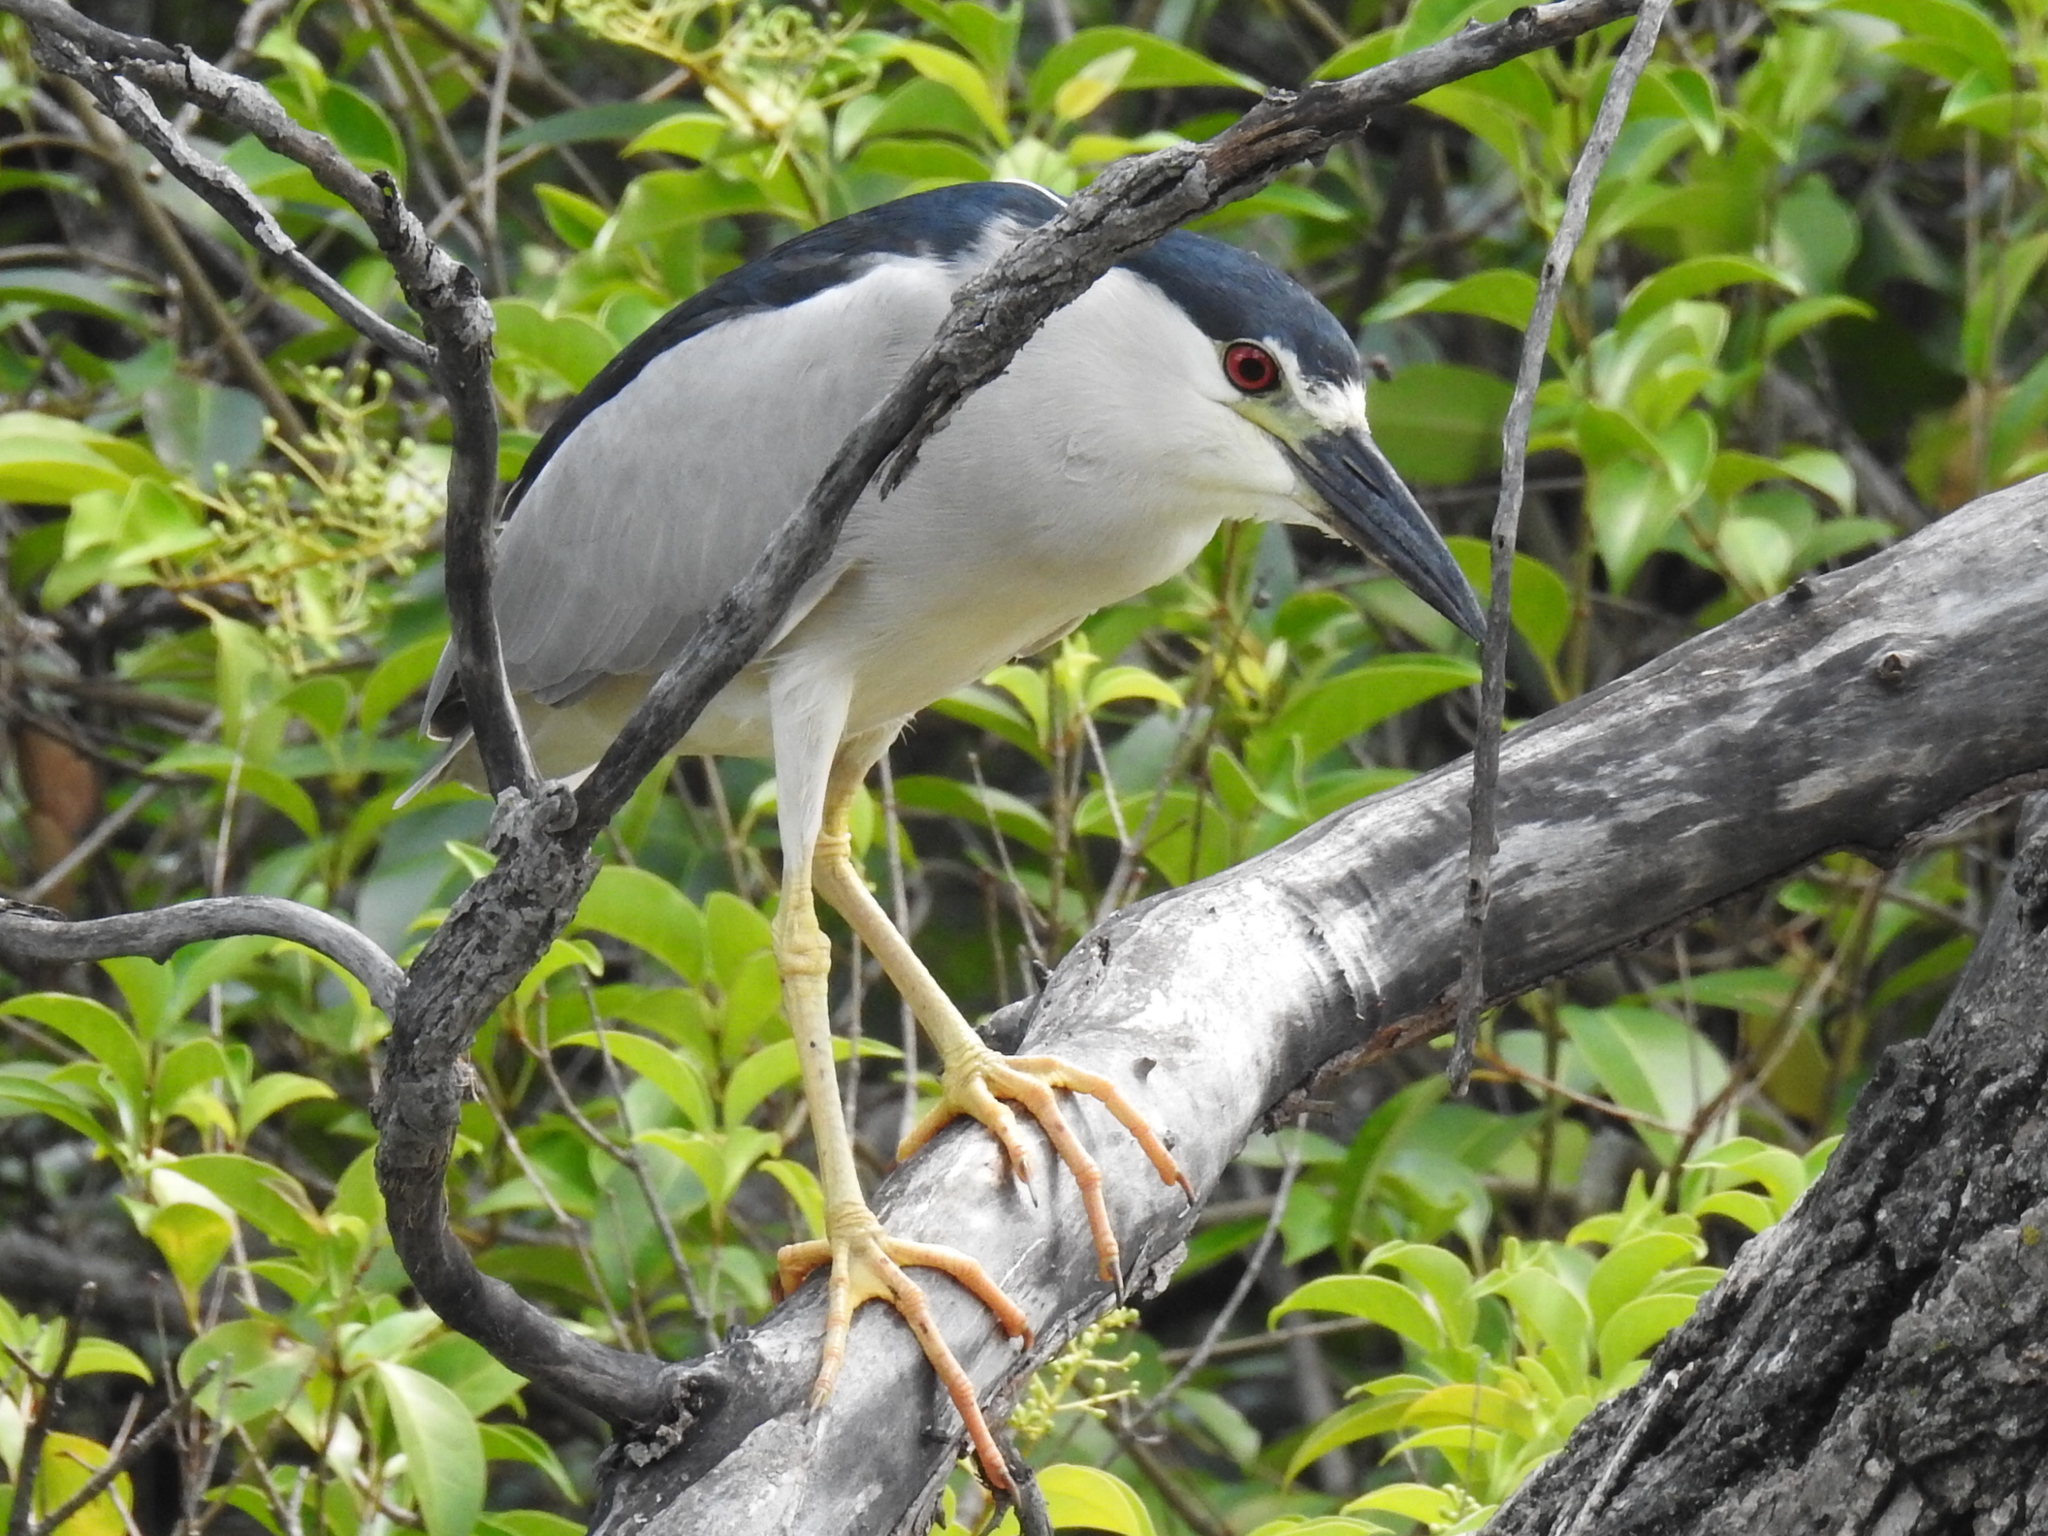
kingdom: Animalia
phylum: Chordata
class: Aves
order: Pelecaniformes
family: Ardeidae
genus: Nycticorax
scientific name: Nycticorax nycticorax
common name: Black-crowned night heron
